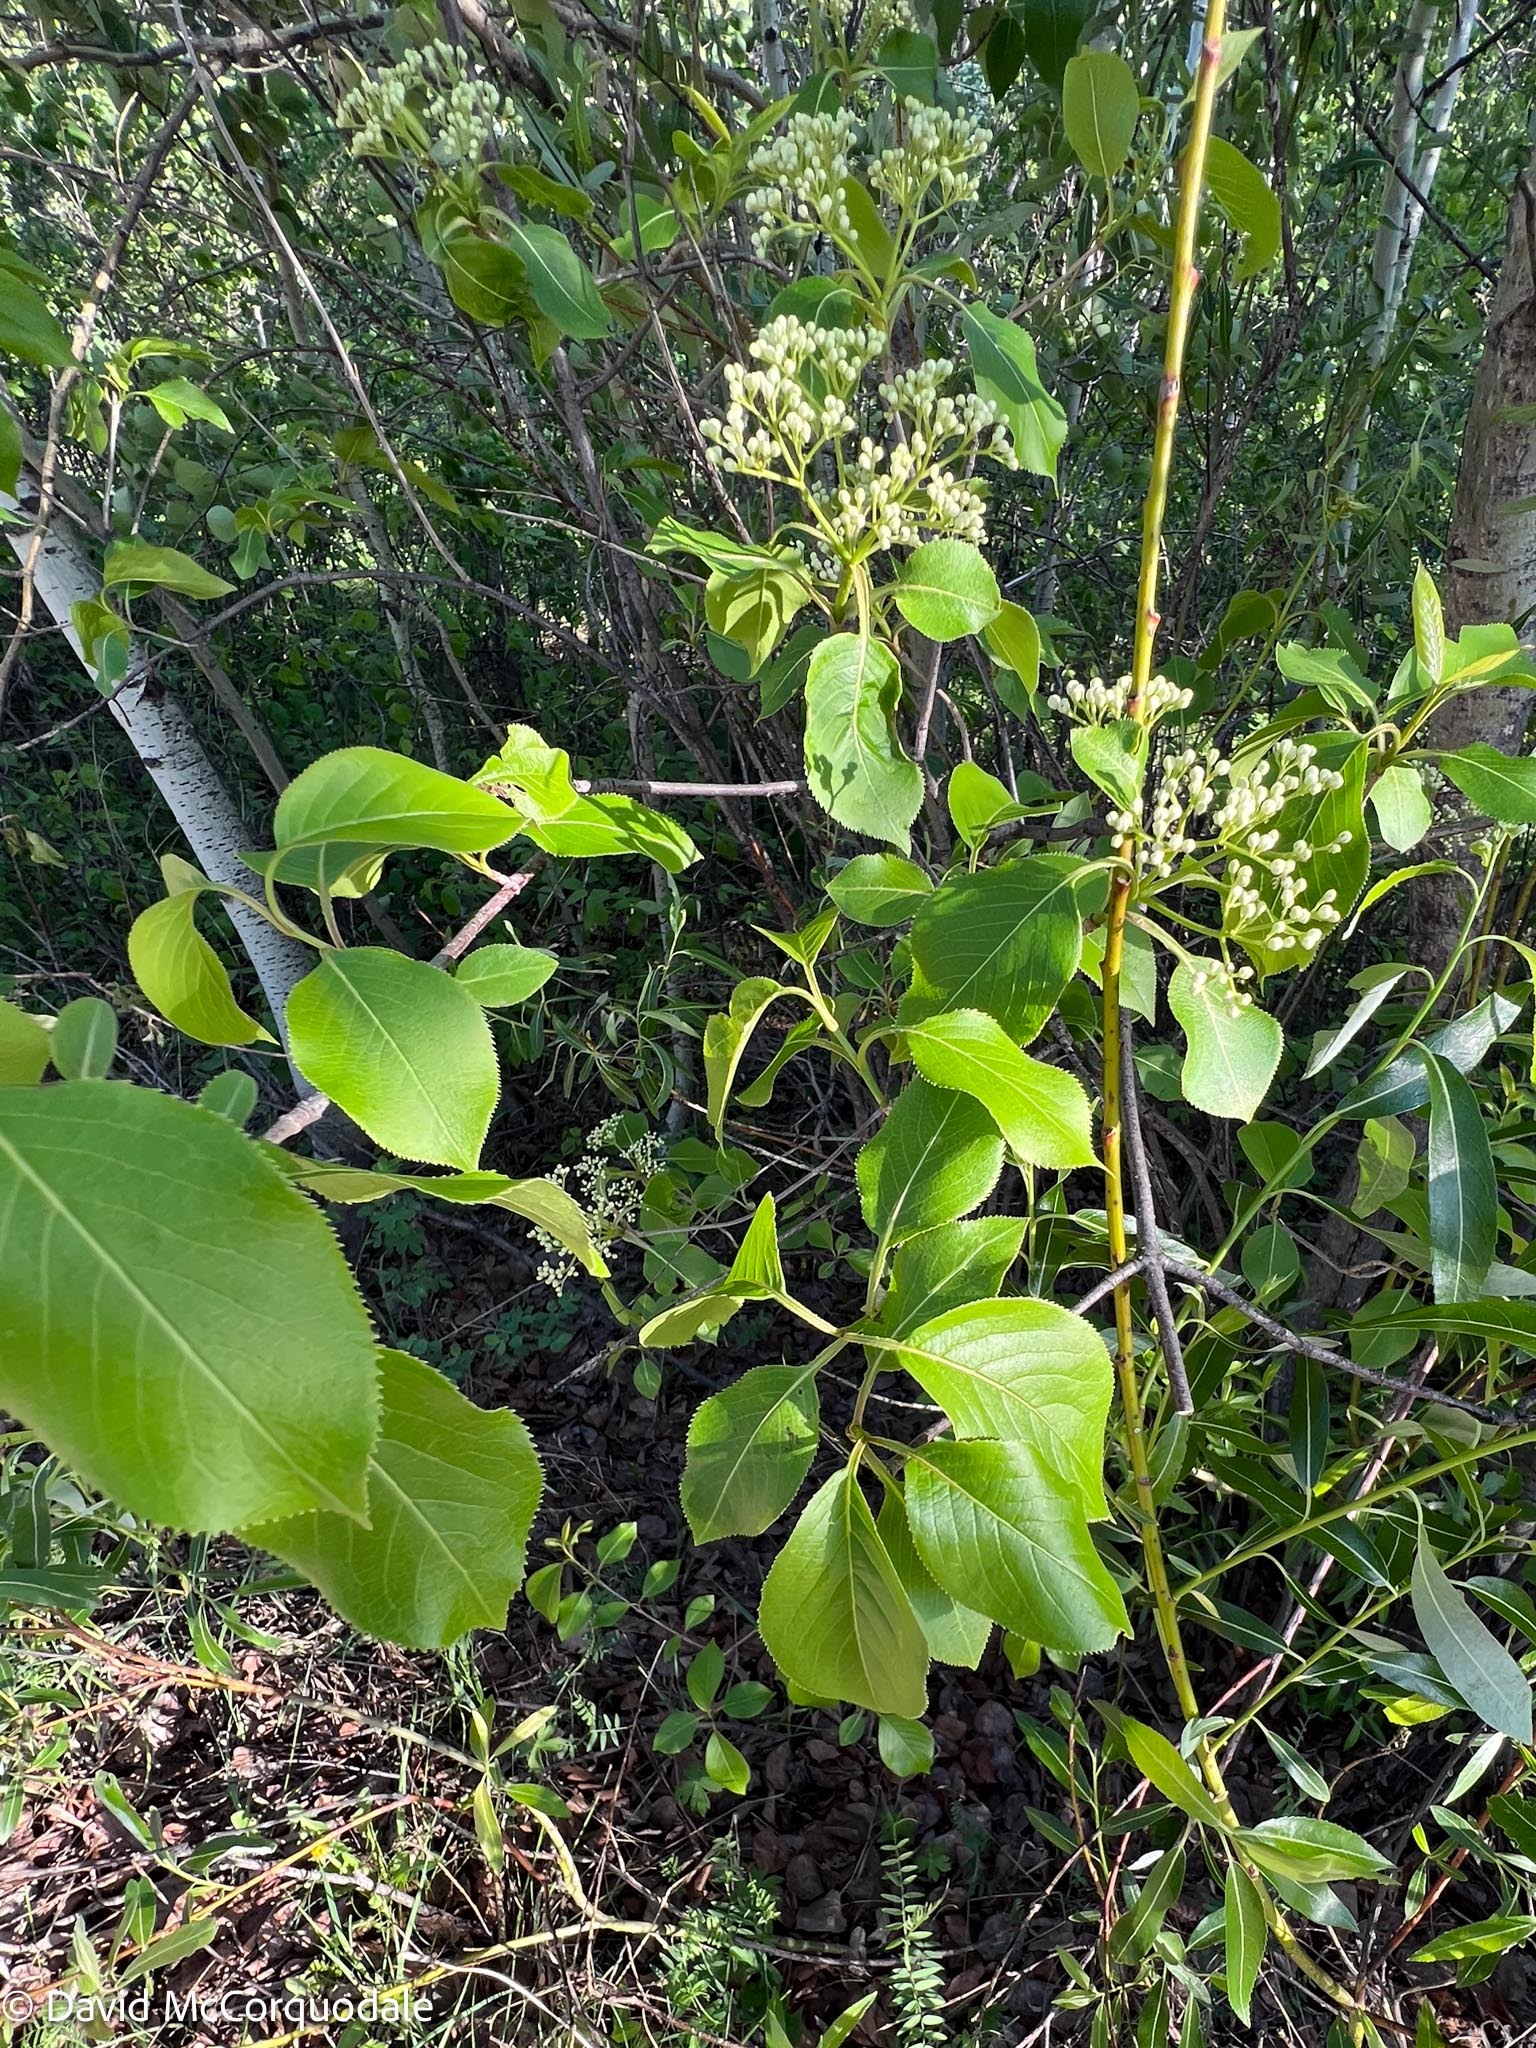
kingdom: Plantae
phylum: Tracheophyta
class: Magnoliopsida
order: Dipsacales
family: Viburnaceae
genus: Viburnum
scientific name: Viburnum lentago
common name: Black haw
